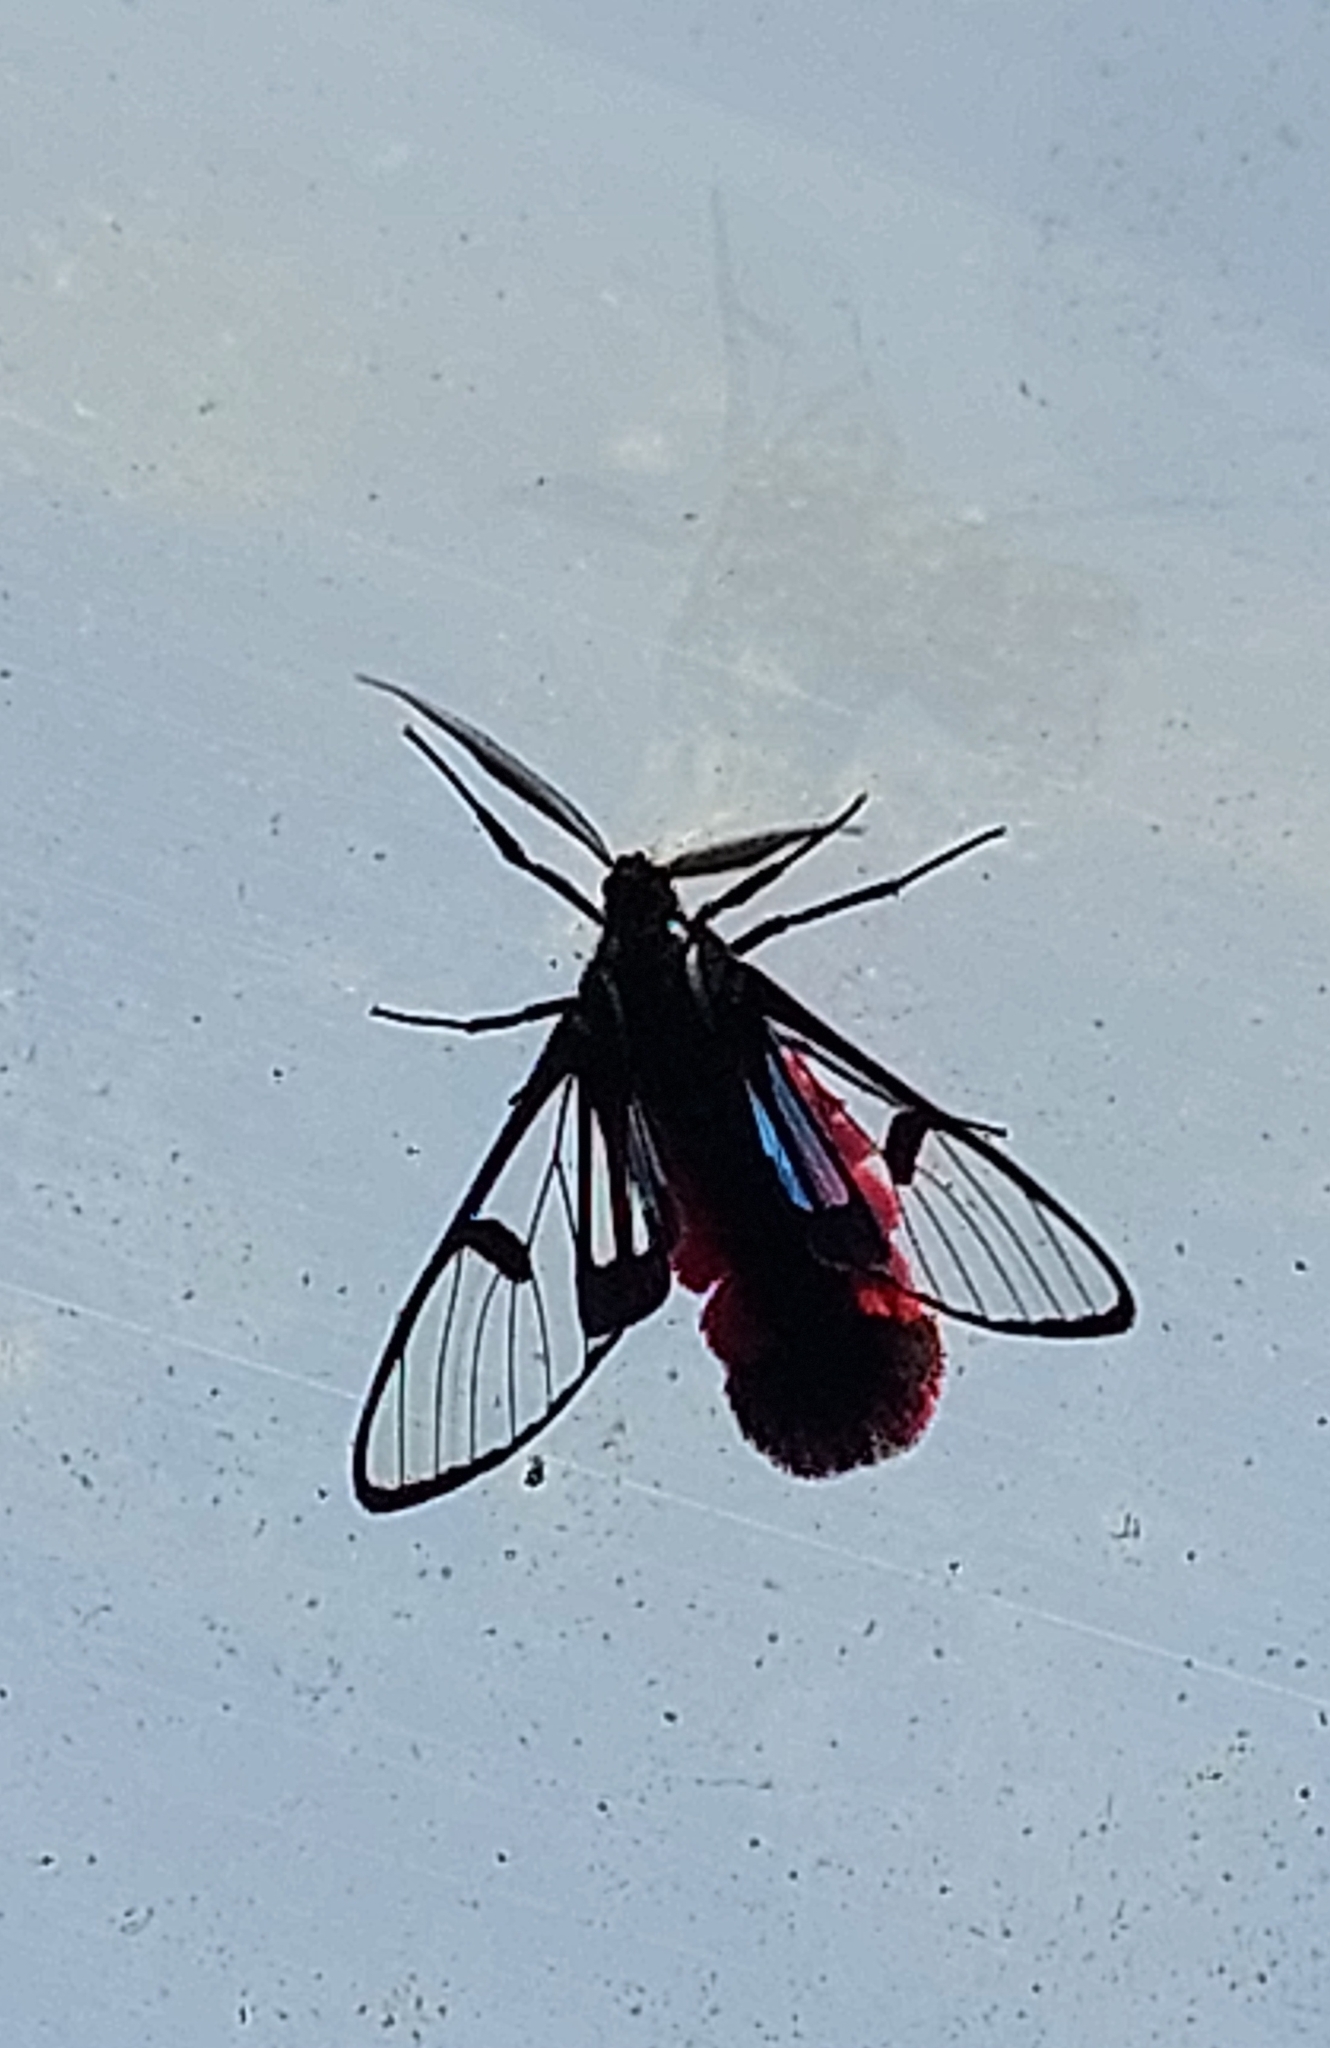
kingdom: Animalia
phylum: Arthropoda
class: Insecta
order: Lepidoptera
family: Erebidae
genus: Dinia
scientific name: Dinia eagrus
